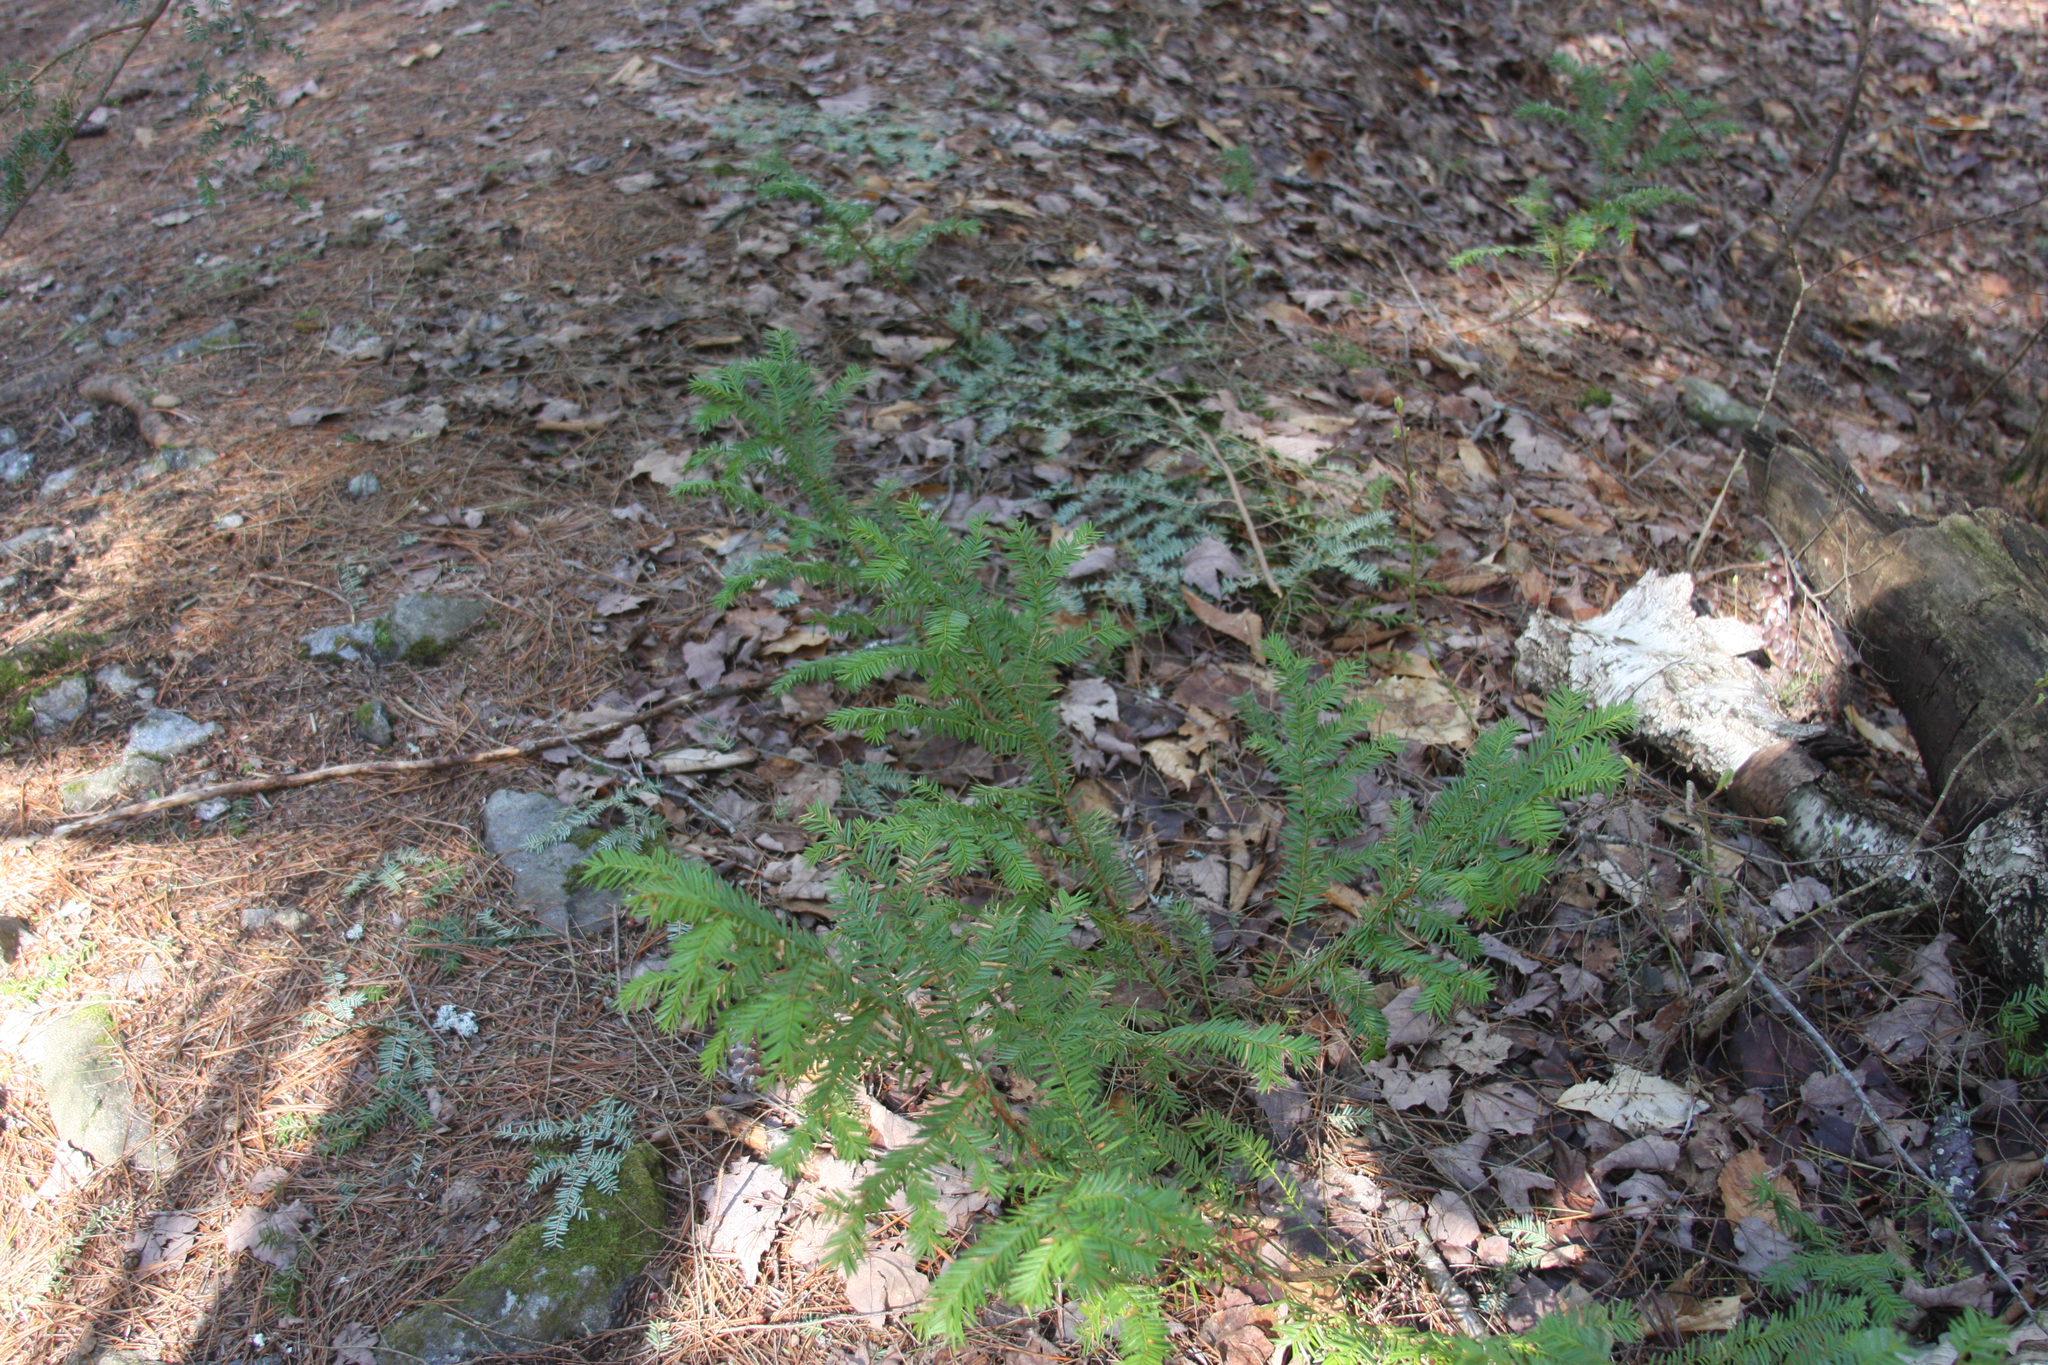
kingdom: Plantae
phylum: Tracheophyta
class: Pinopsida
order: Pinales
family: Taxaceae
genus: Taxus
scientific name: Taxus canadensis
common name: American yew
